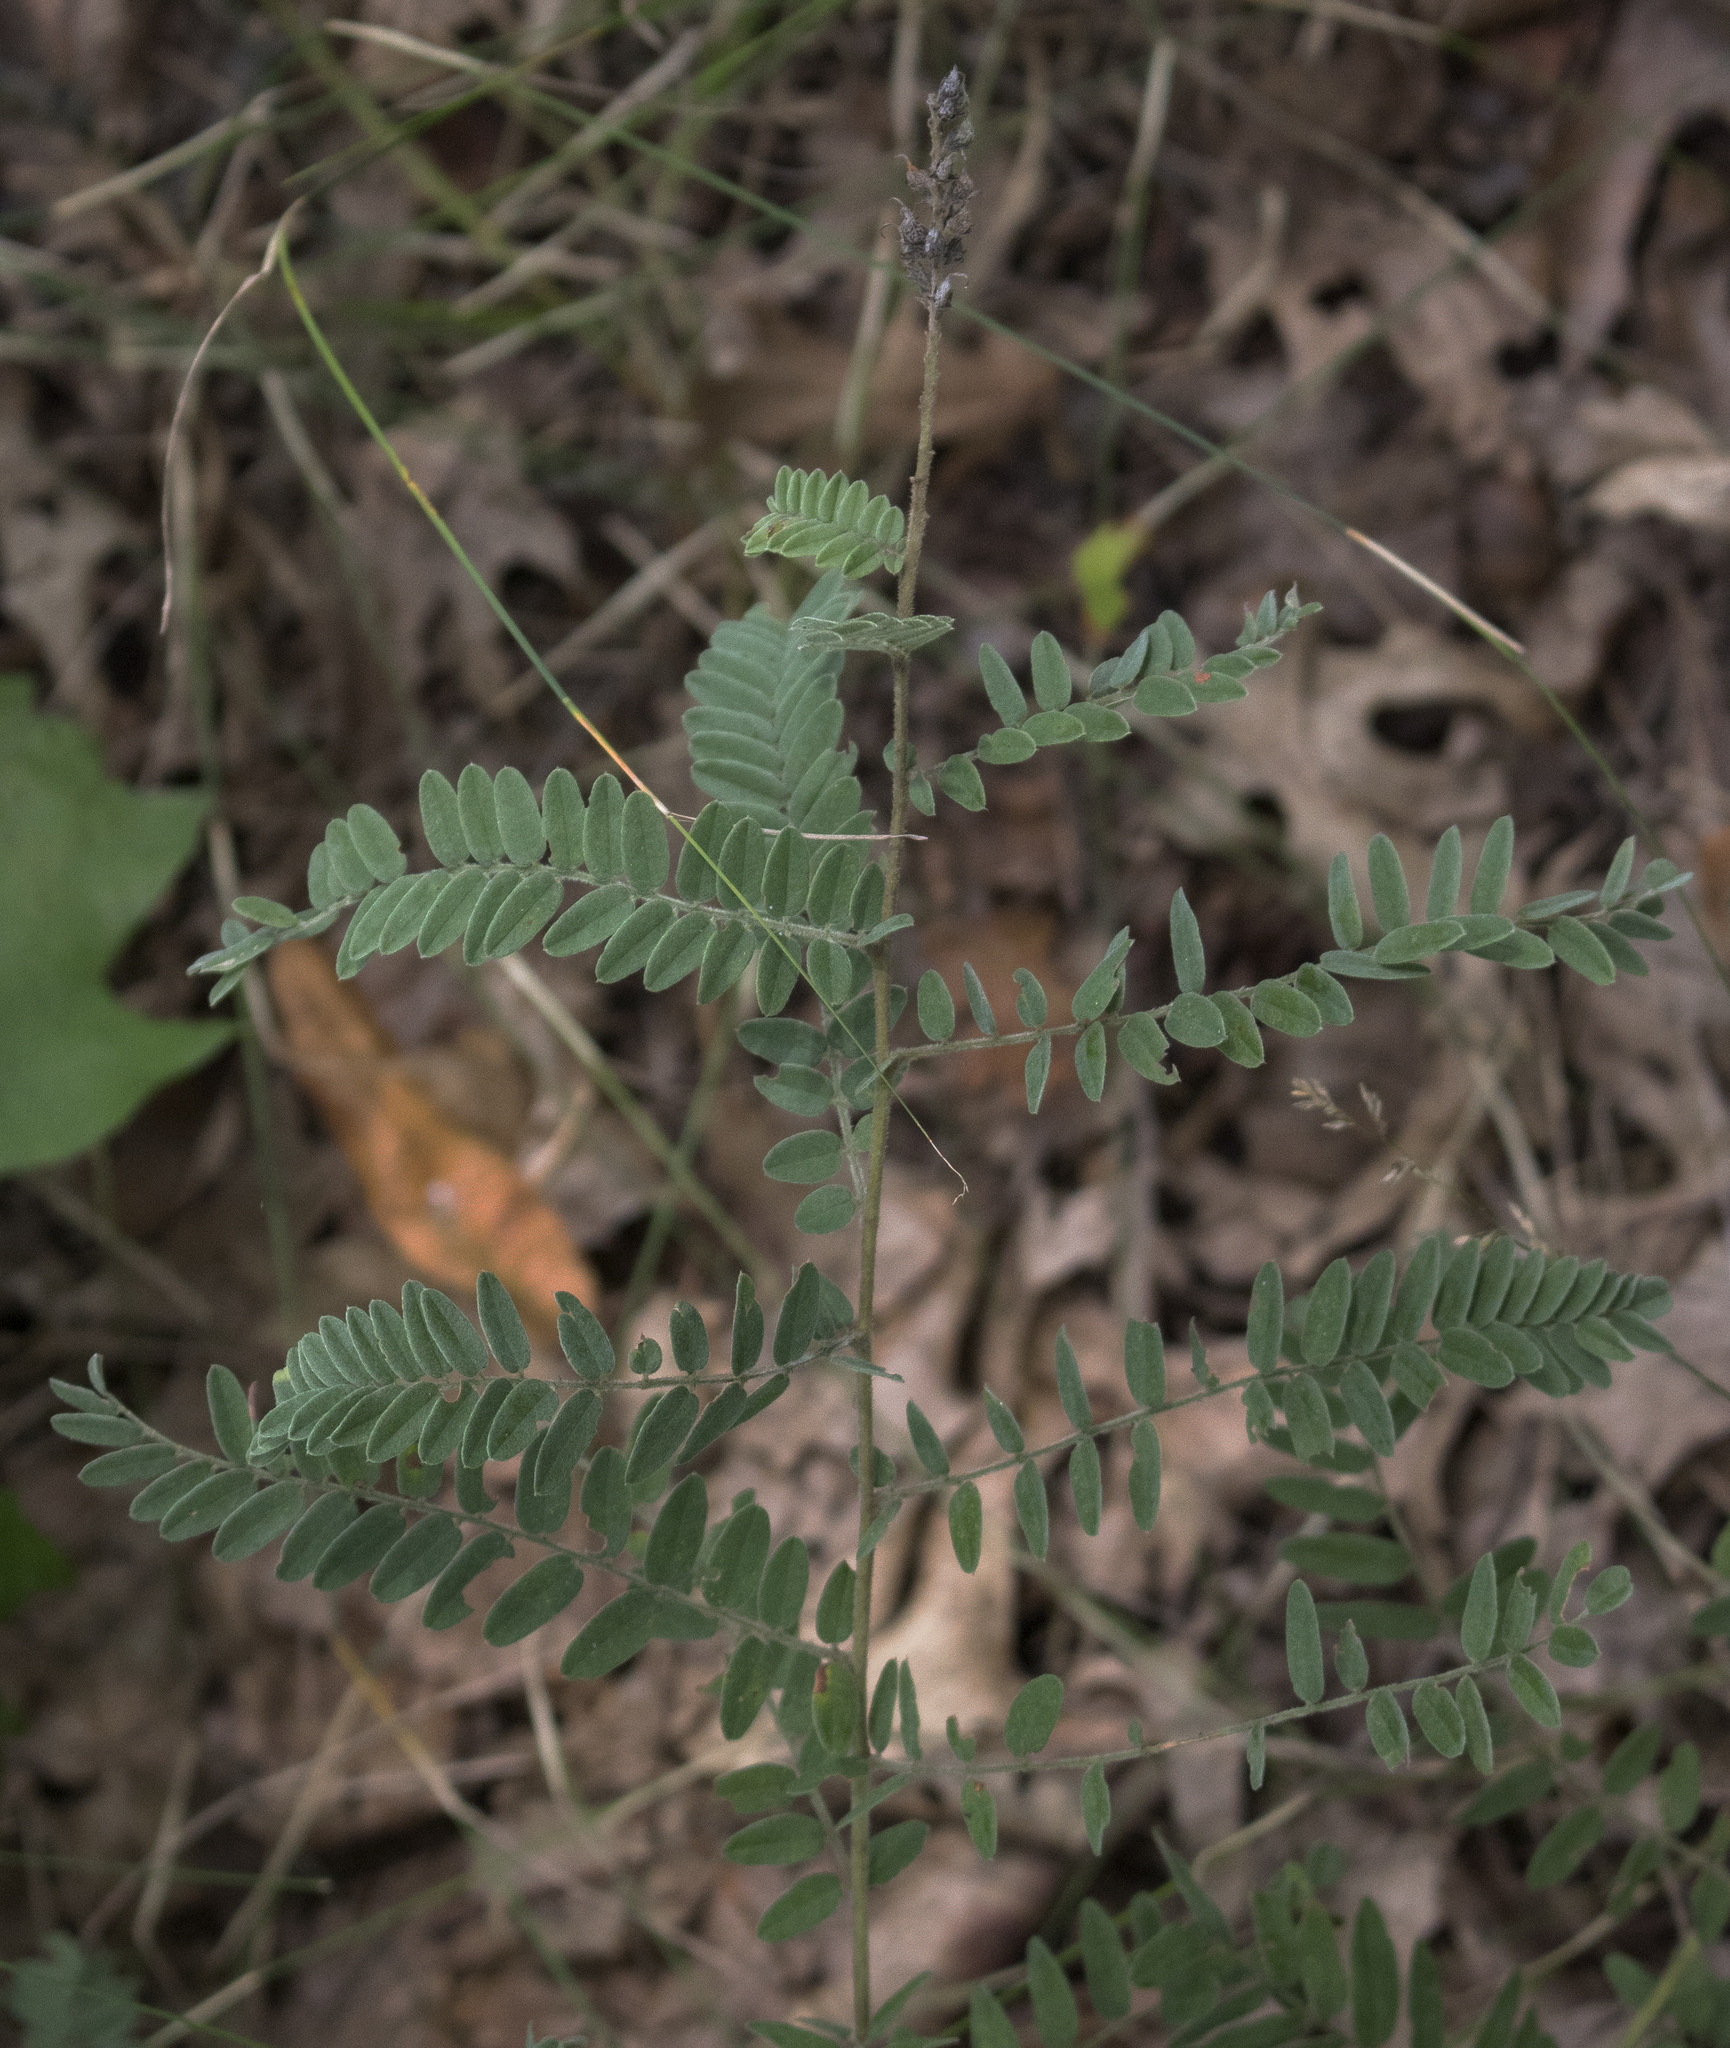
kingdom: Plantae
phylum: Tracheophyta
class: Magnoliopsida
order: Fabales
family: Fabaceae
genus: Amorpha
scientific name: Amorpha canescens
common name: Leadplant
